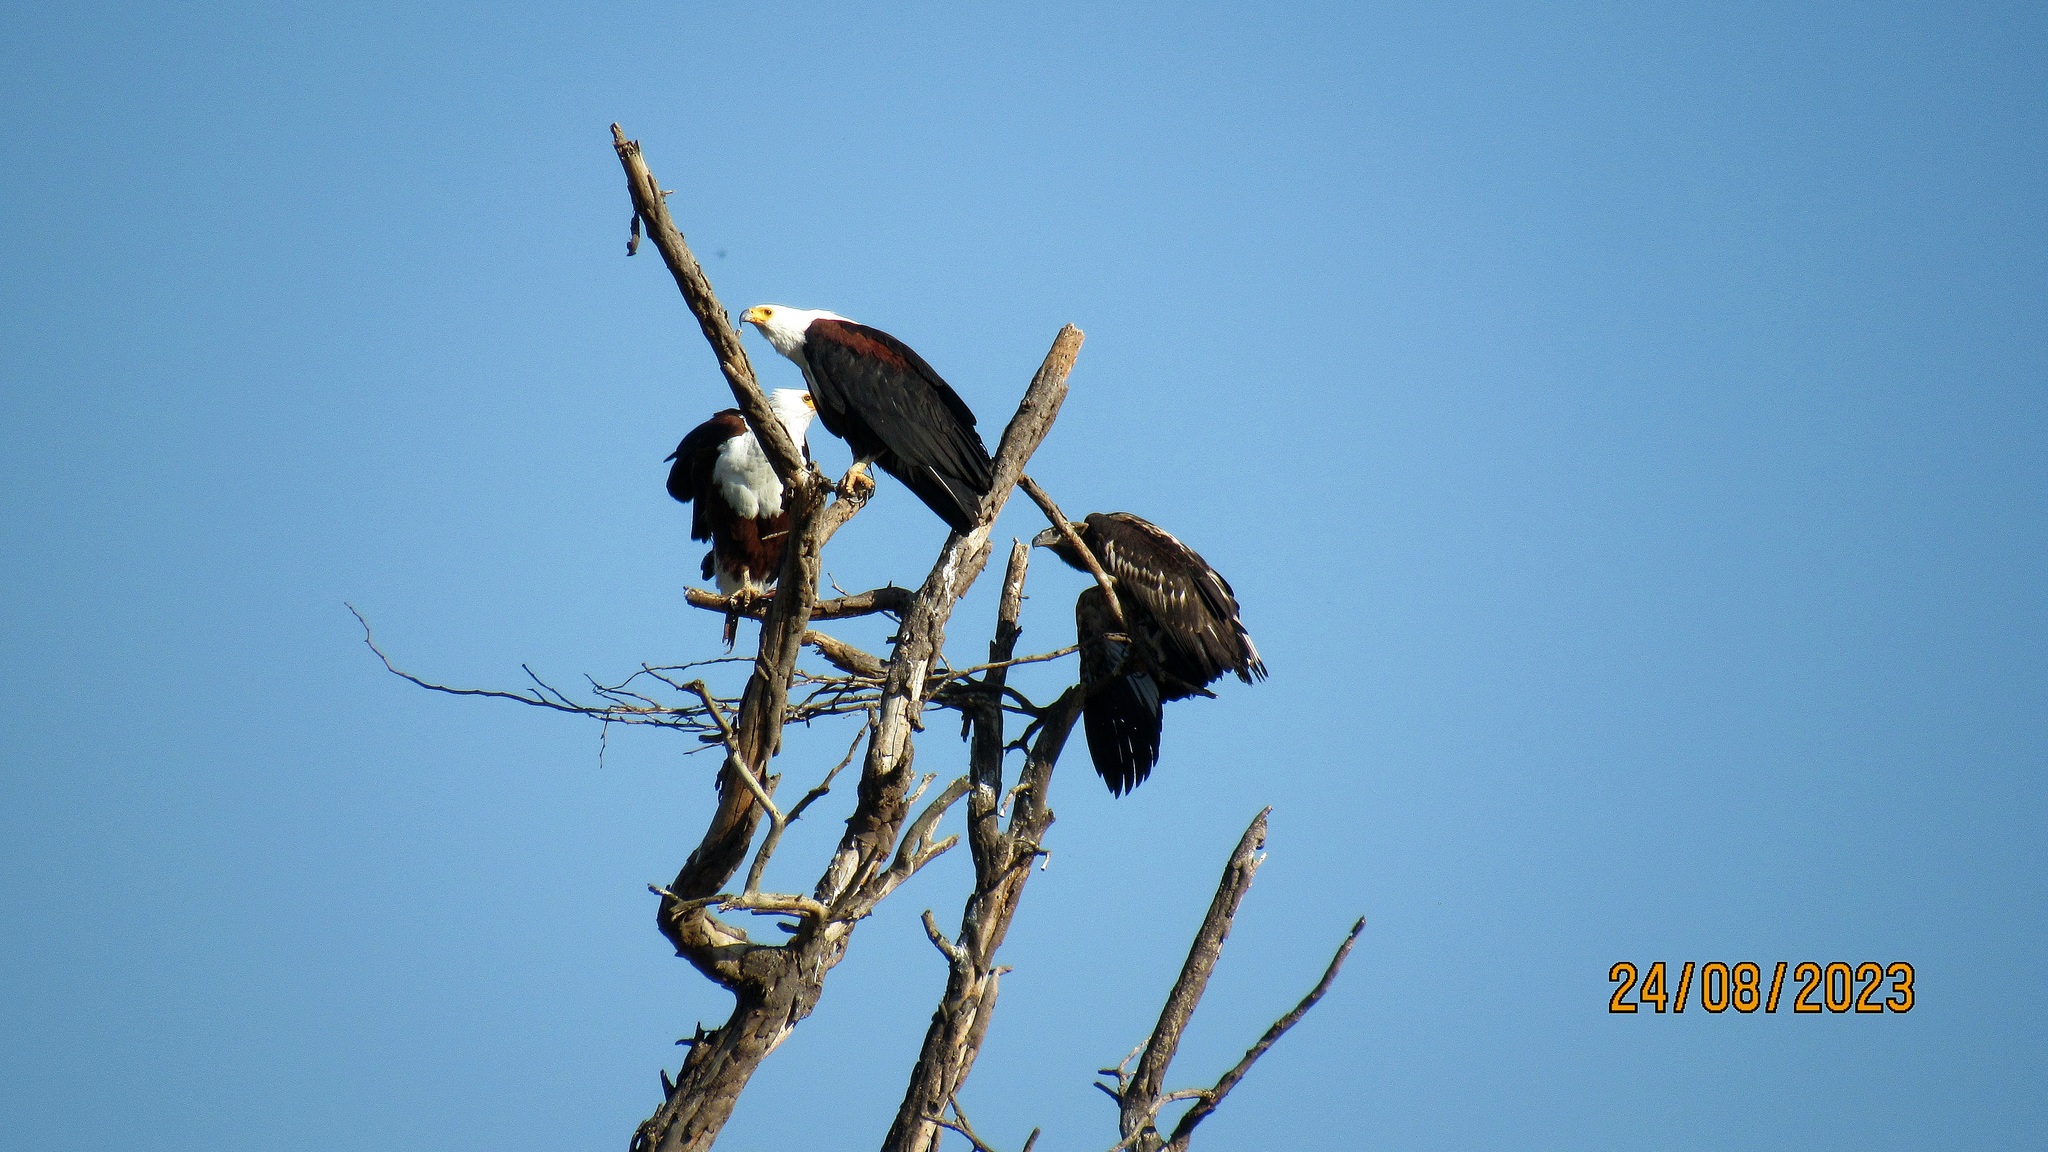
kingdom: Animalia
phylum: Chordata
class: Aves
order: Accipitriformes
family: Accipitridae
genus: Haliaeetus
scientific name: Haliaeetus vocifer
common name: African fish eagle
